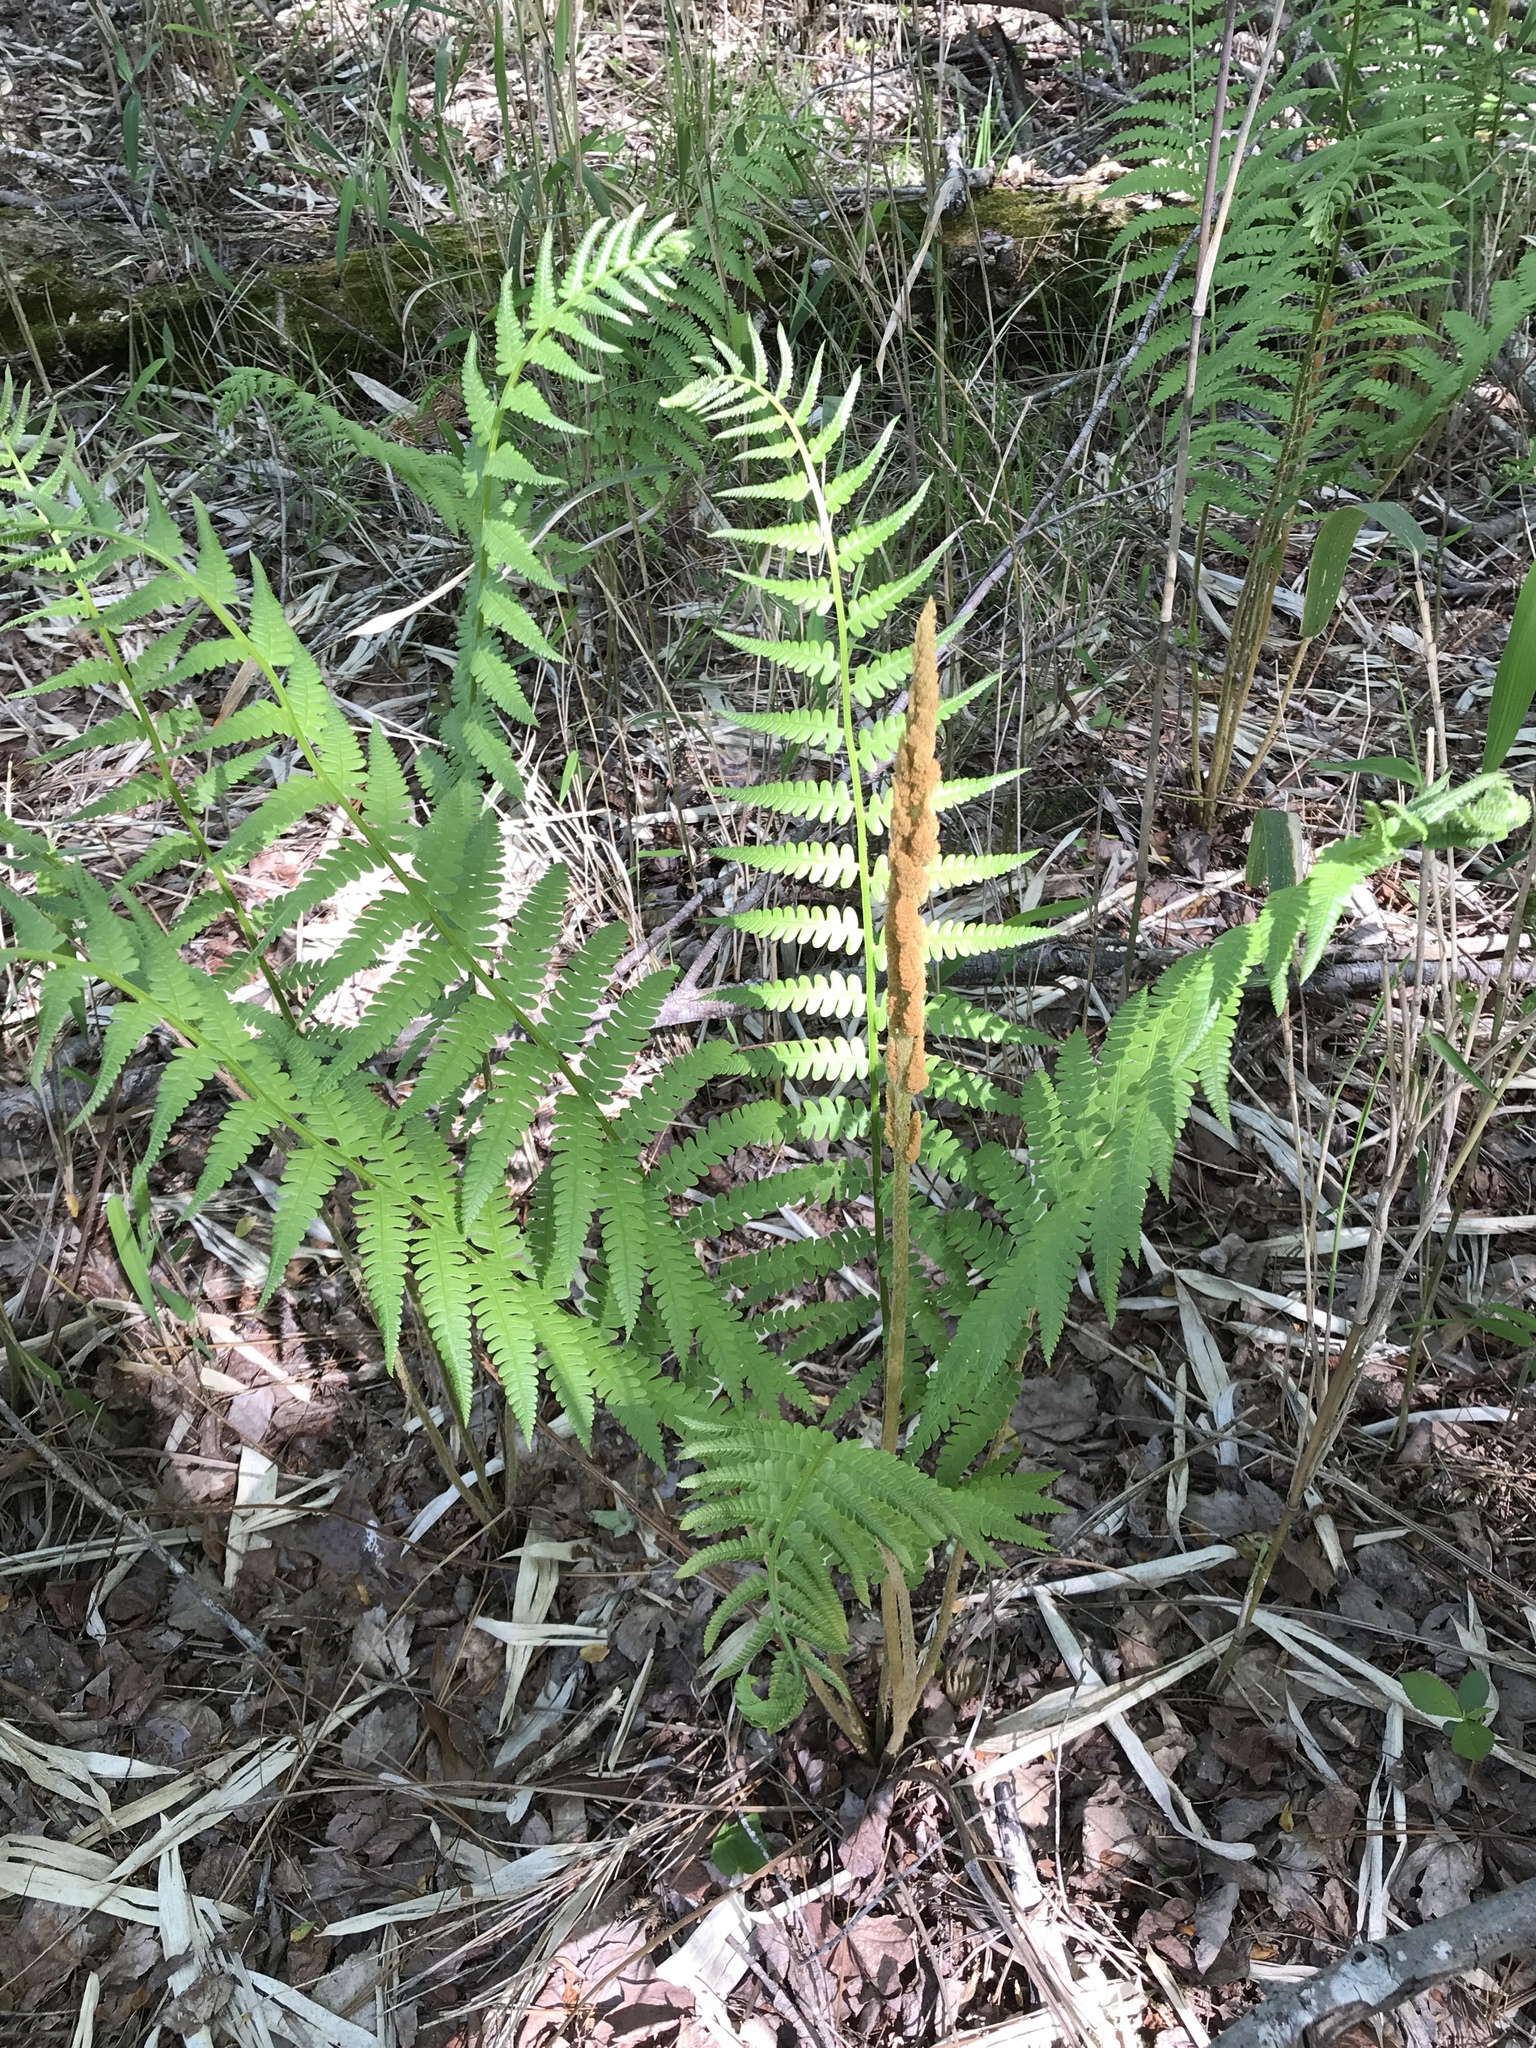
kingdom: Plantae
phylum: Tracheophyta
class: Polypodiopsida
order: Osmundales
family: Osmundaceae
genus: Osmundastrum
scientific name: Osmundastrum cinnamomeum
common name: Cinnamon fern
